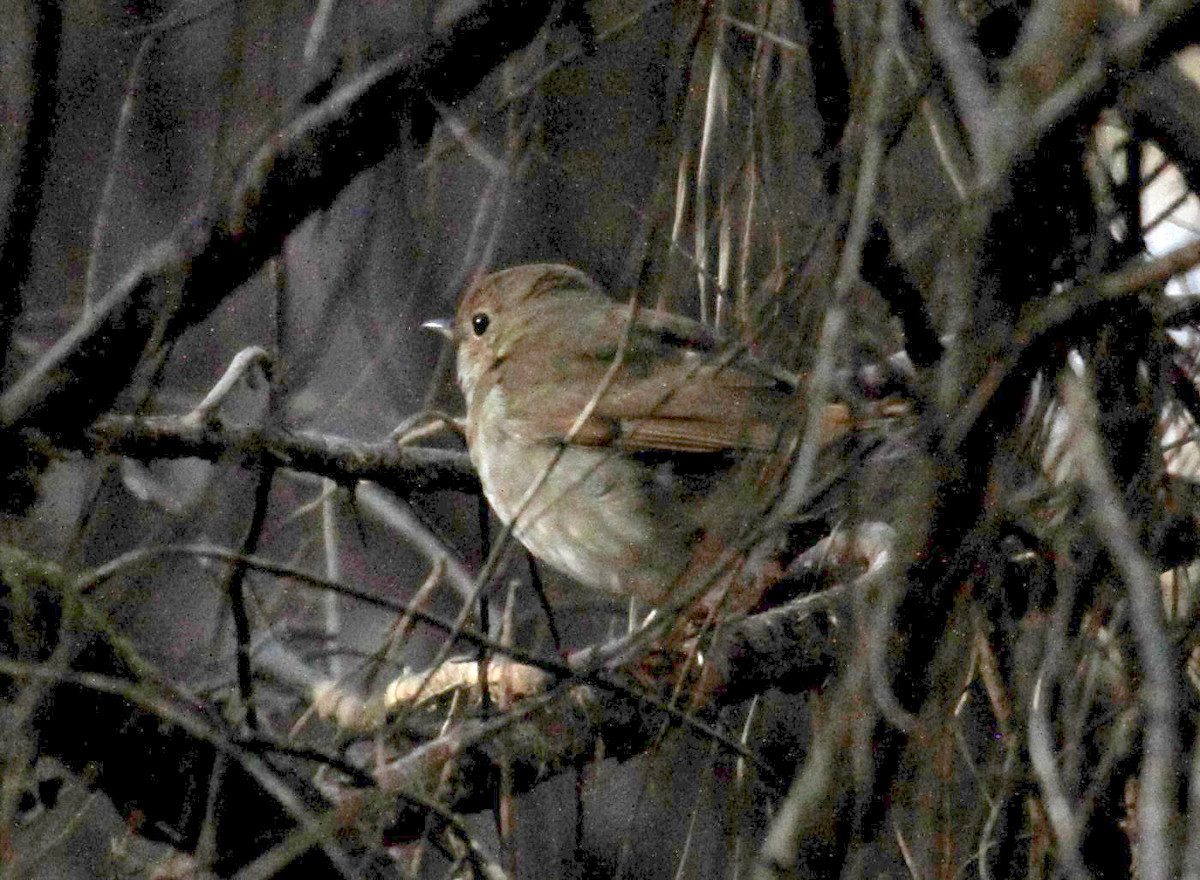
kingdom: Animalia
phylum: Chordata
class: Aves
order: Passeriformes
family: Turdidae
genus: Catharus
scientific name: Catharus guttatus
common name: Hermit thrush
